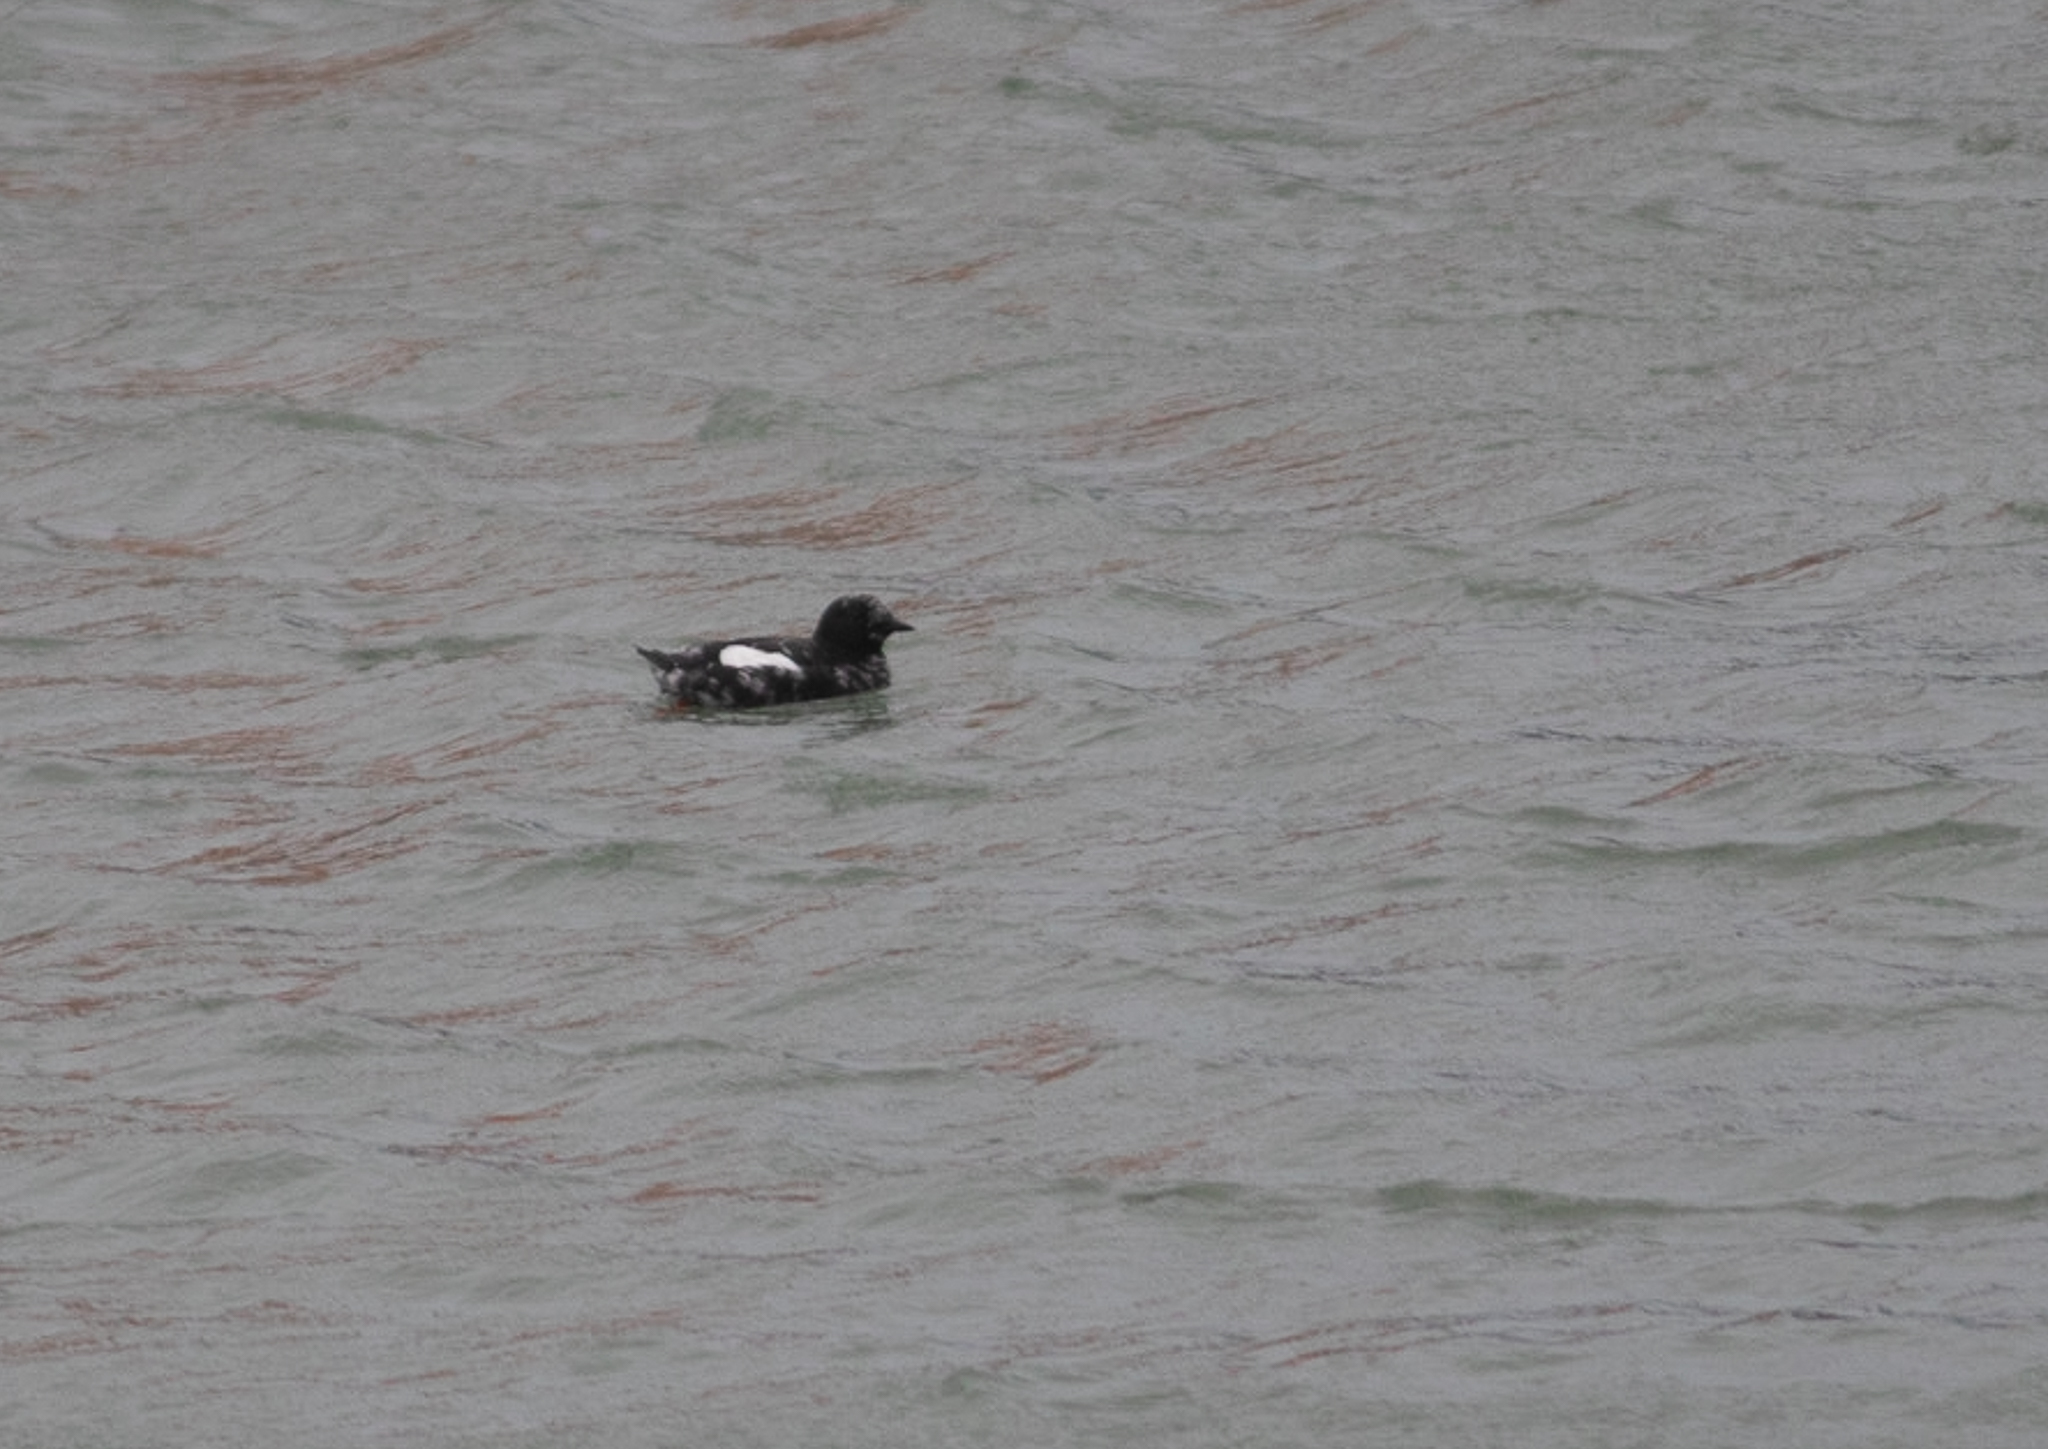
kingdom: Animalia
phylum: Chordata
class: Aves
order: Charadriiformes
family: Alcidae
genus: Cepphus
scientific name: Cepphus grylle
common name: Black guillemot
